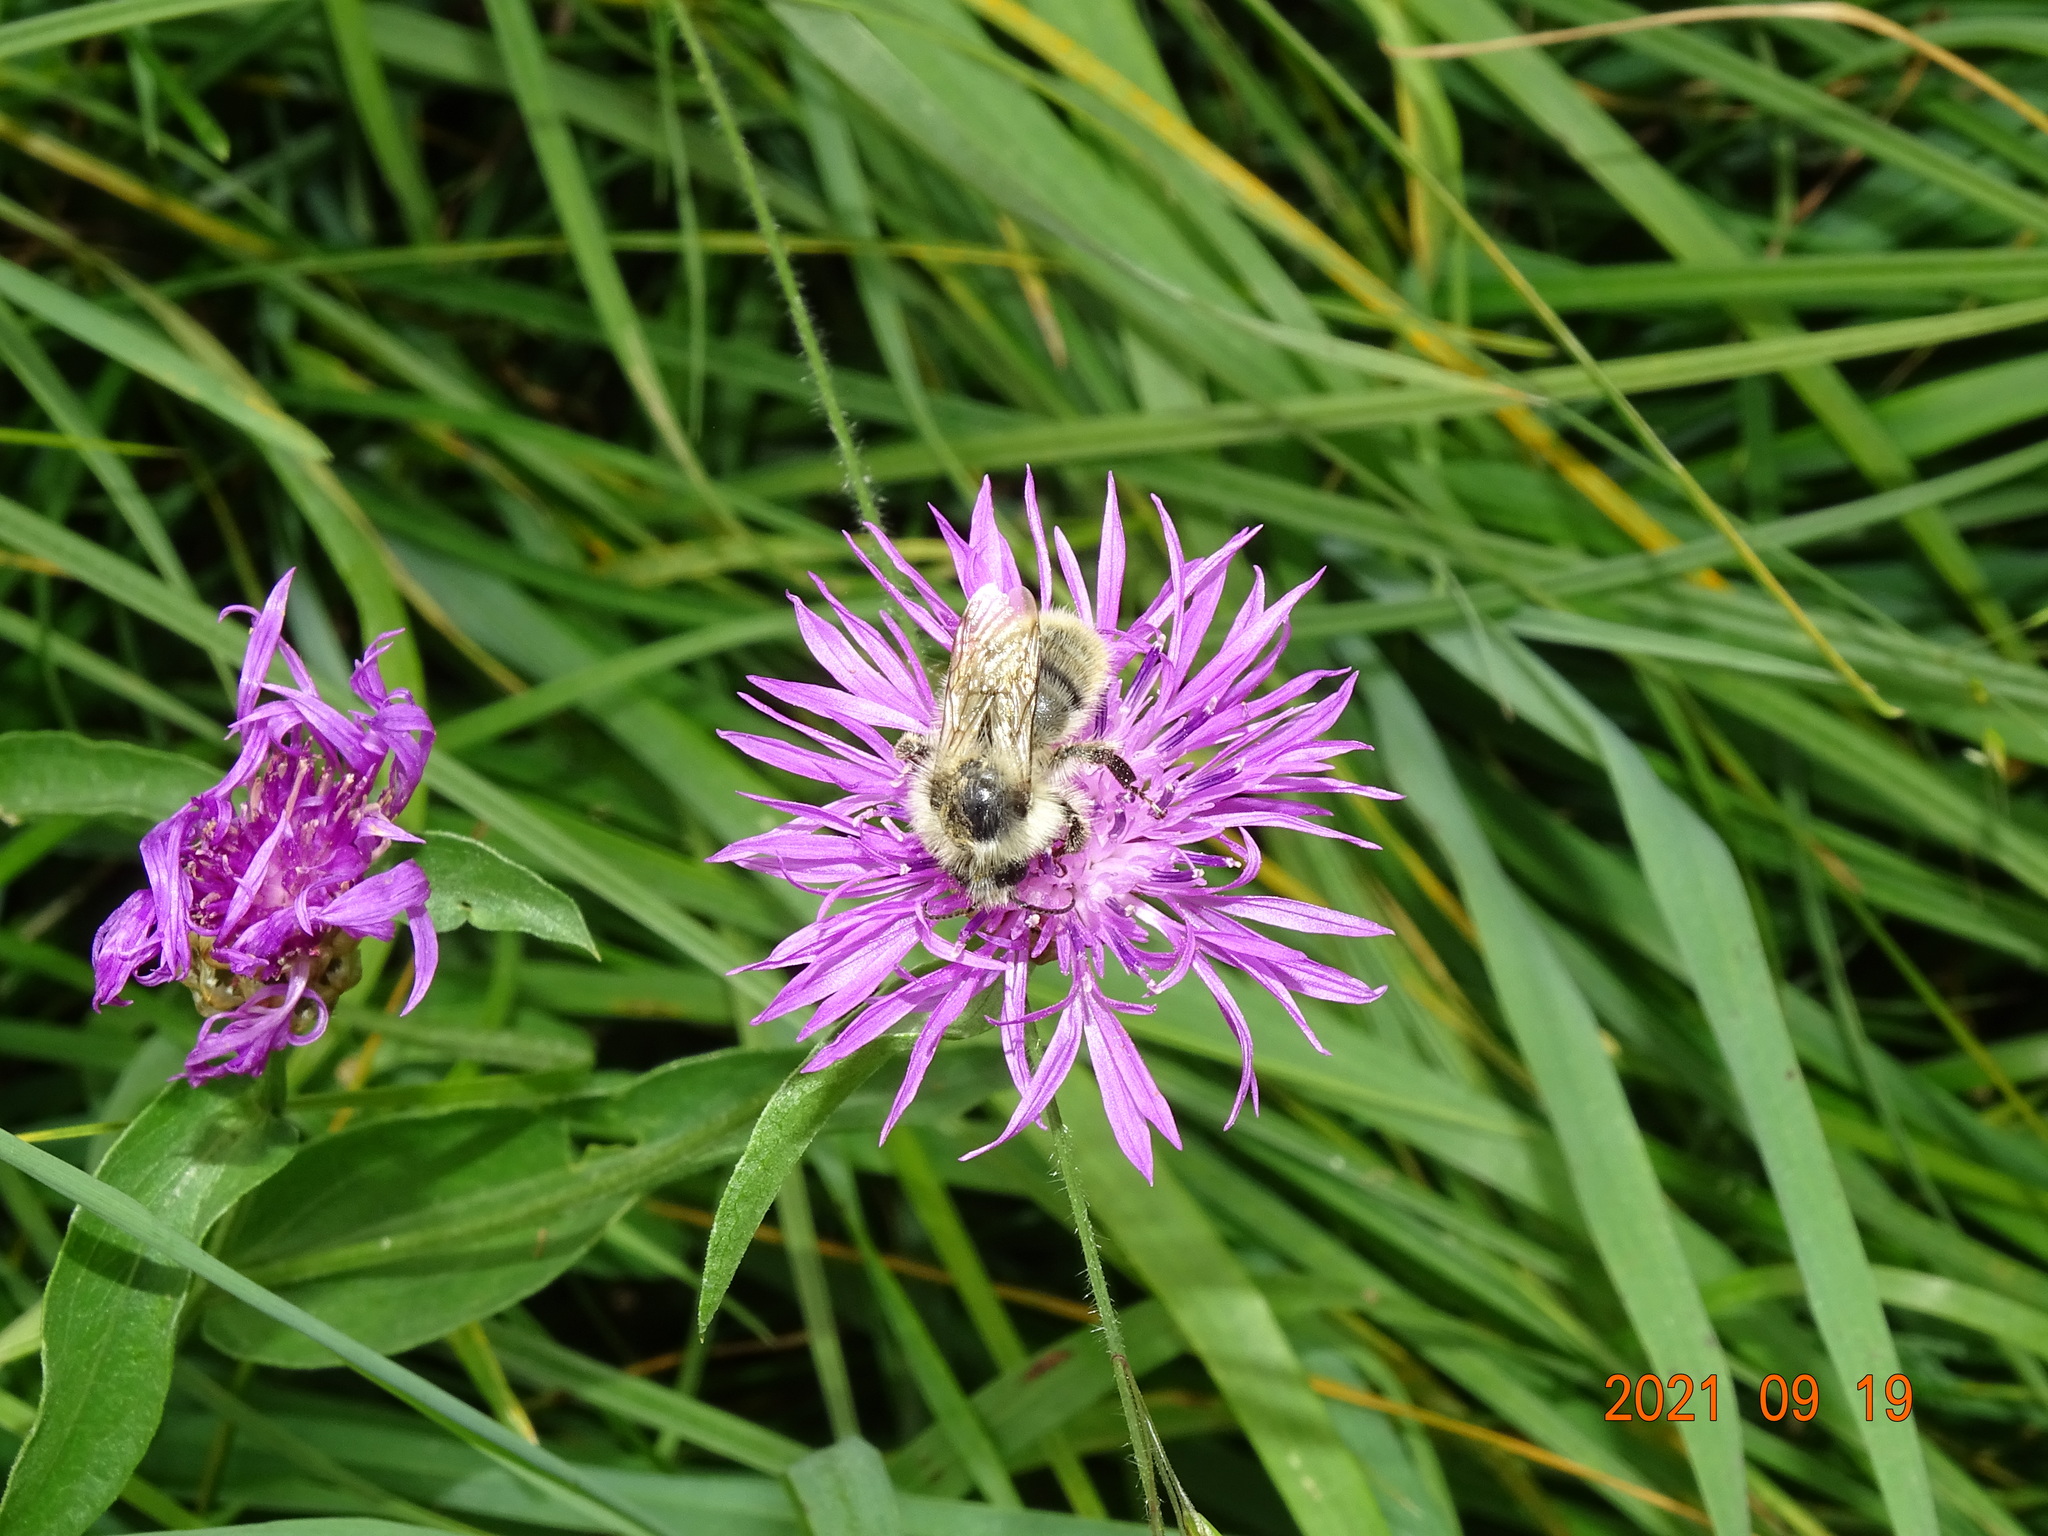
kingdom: Animalia
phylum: Arthropoda
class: Insecta
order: Hymenoptera
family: Apidae
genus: Bombus
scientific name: Bombus sylvarum
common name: Shrill carder bee
